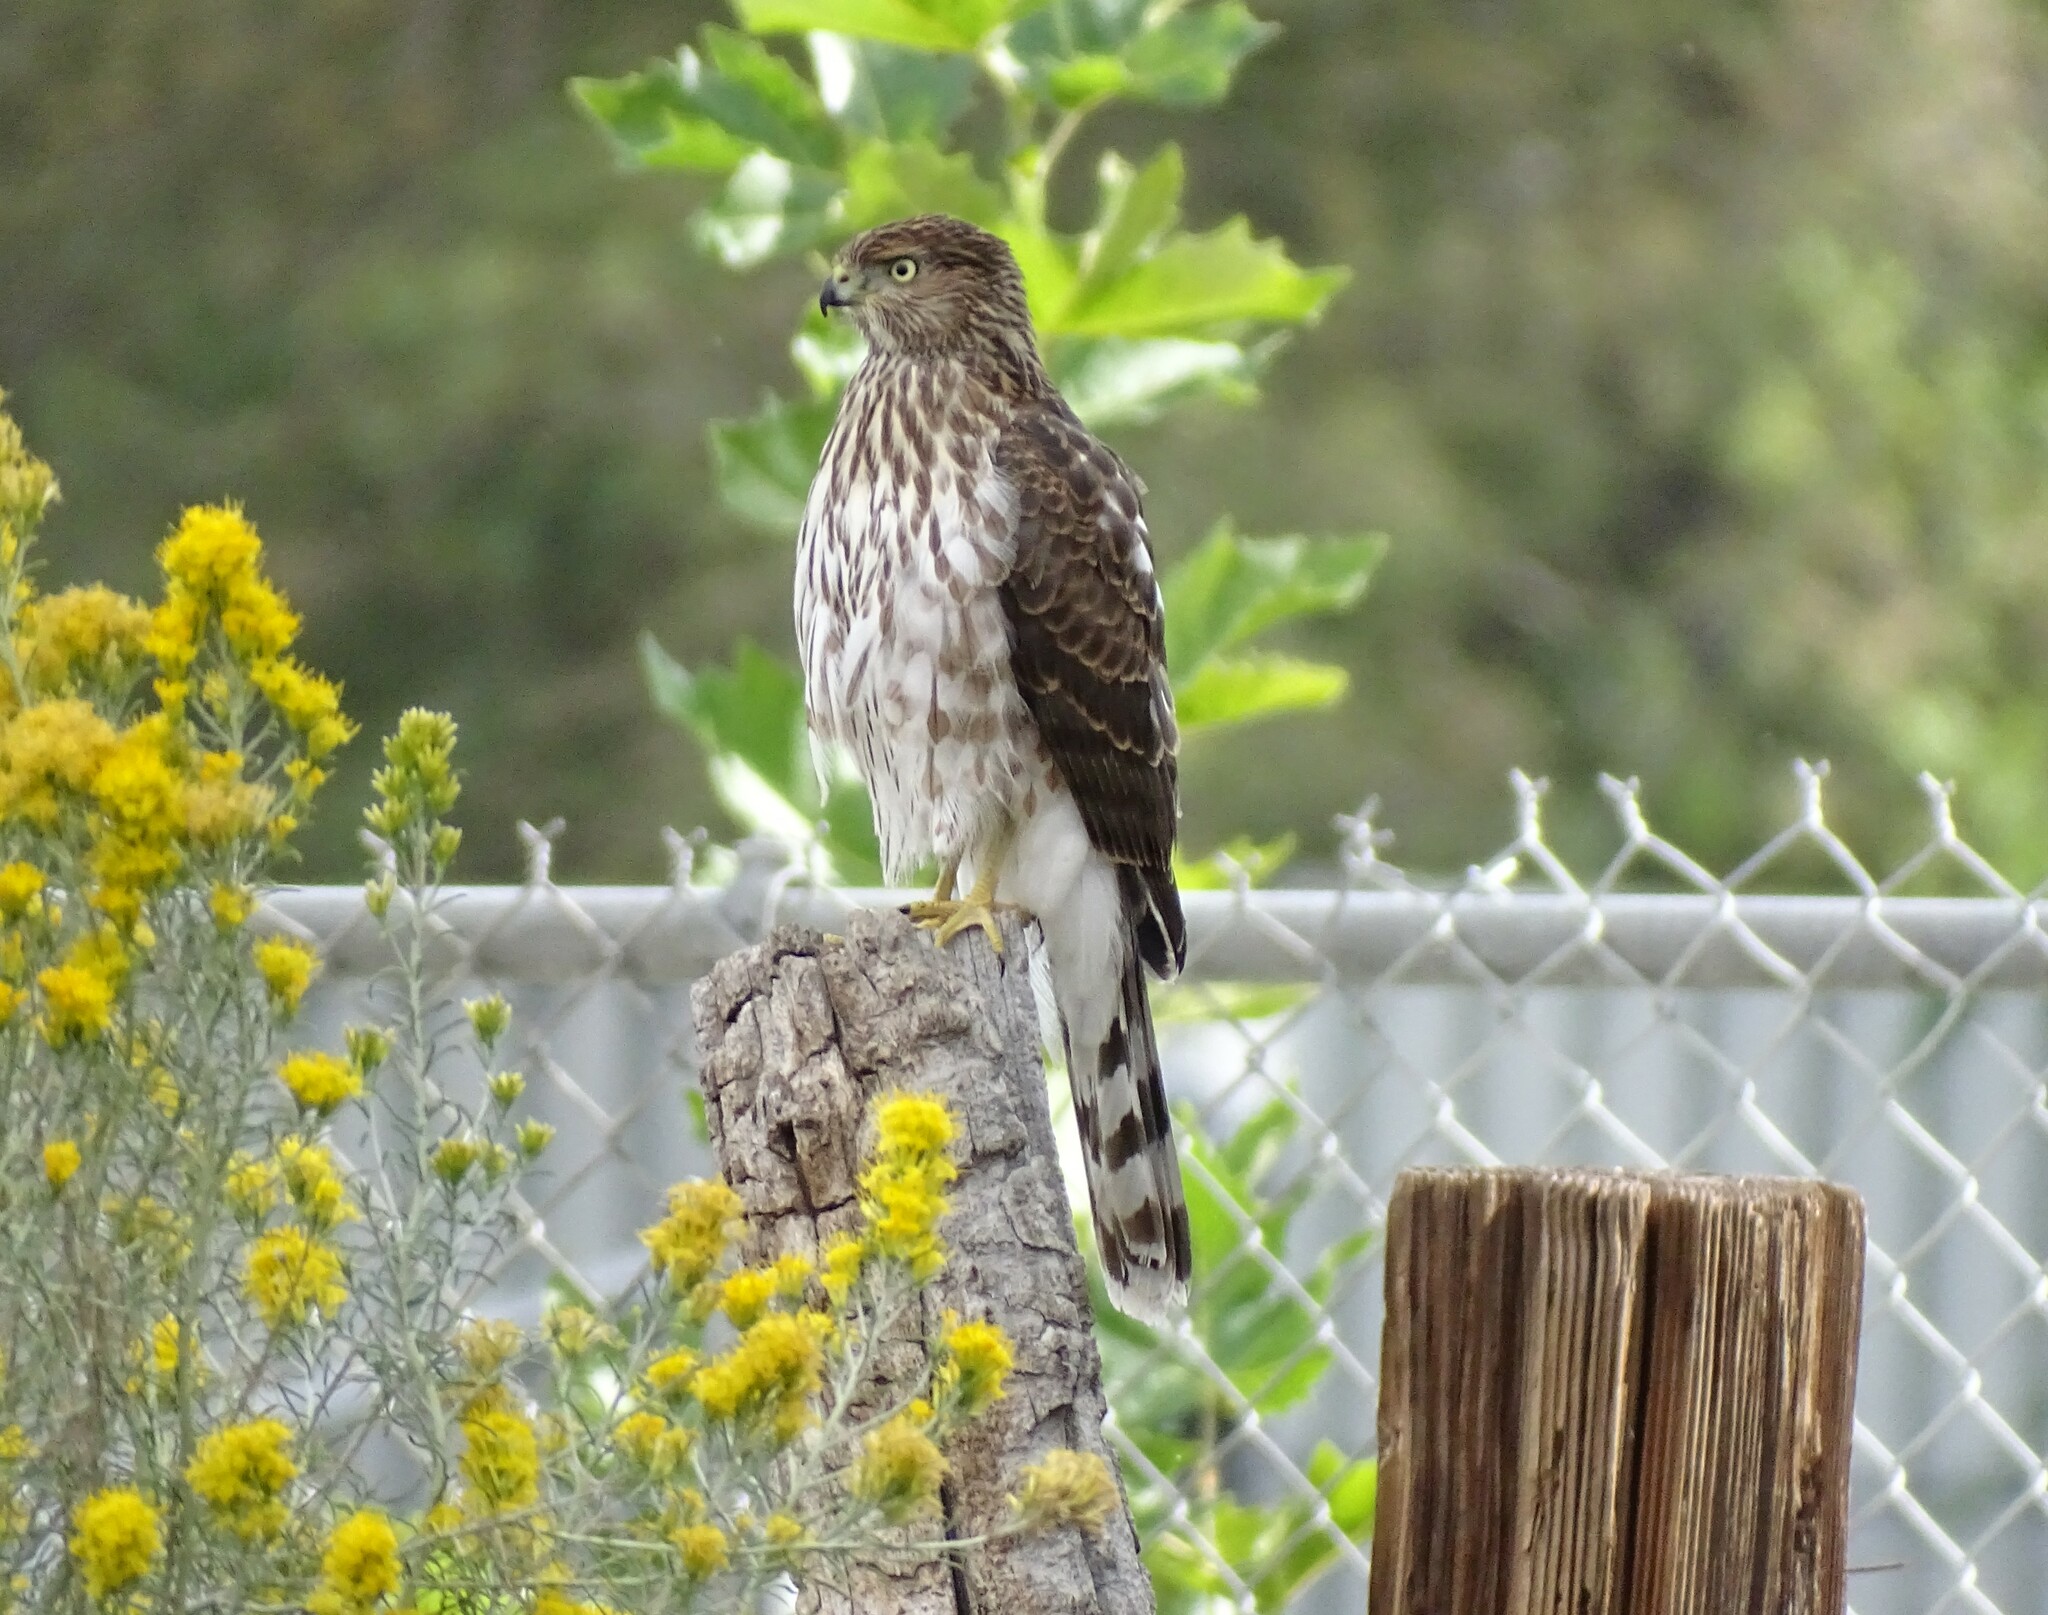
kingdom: Animalia
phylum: Chordata
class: Aves
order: Accipitriformes
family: Accipitridae
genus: Accipiter
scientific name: Accipiter cooperii
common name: Cooper's hawk
